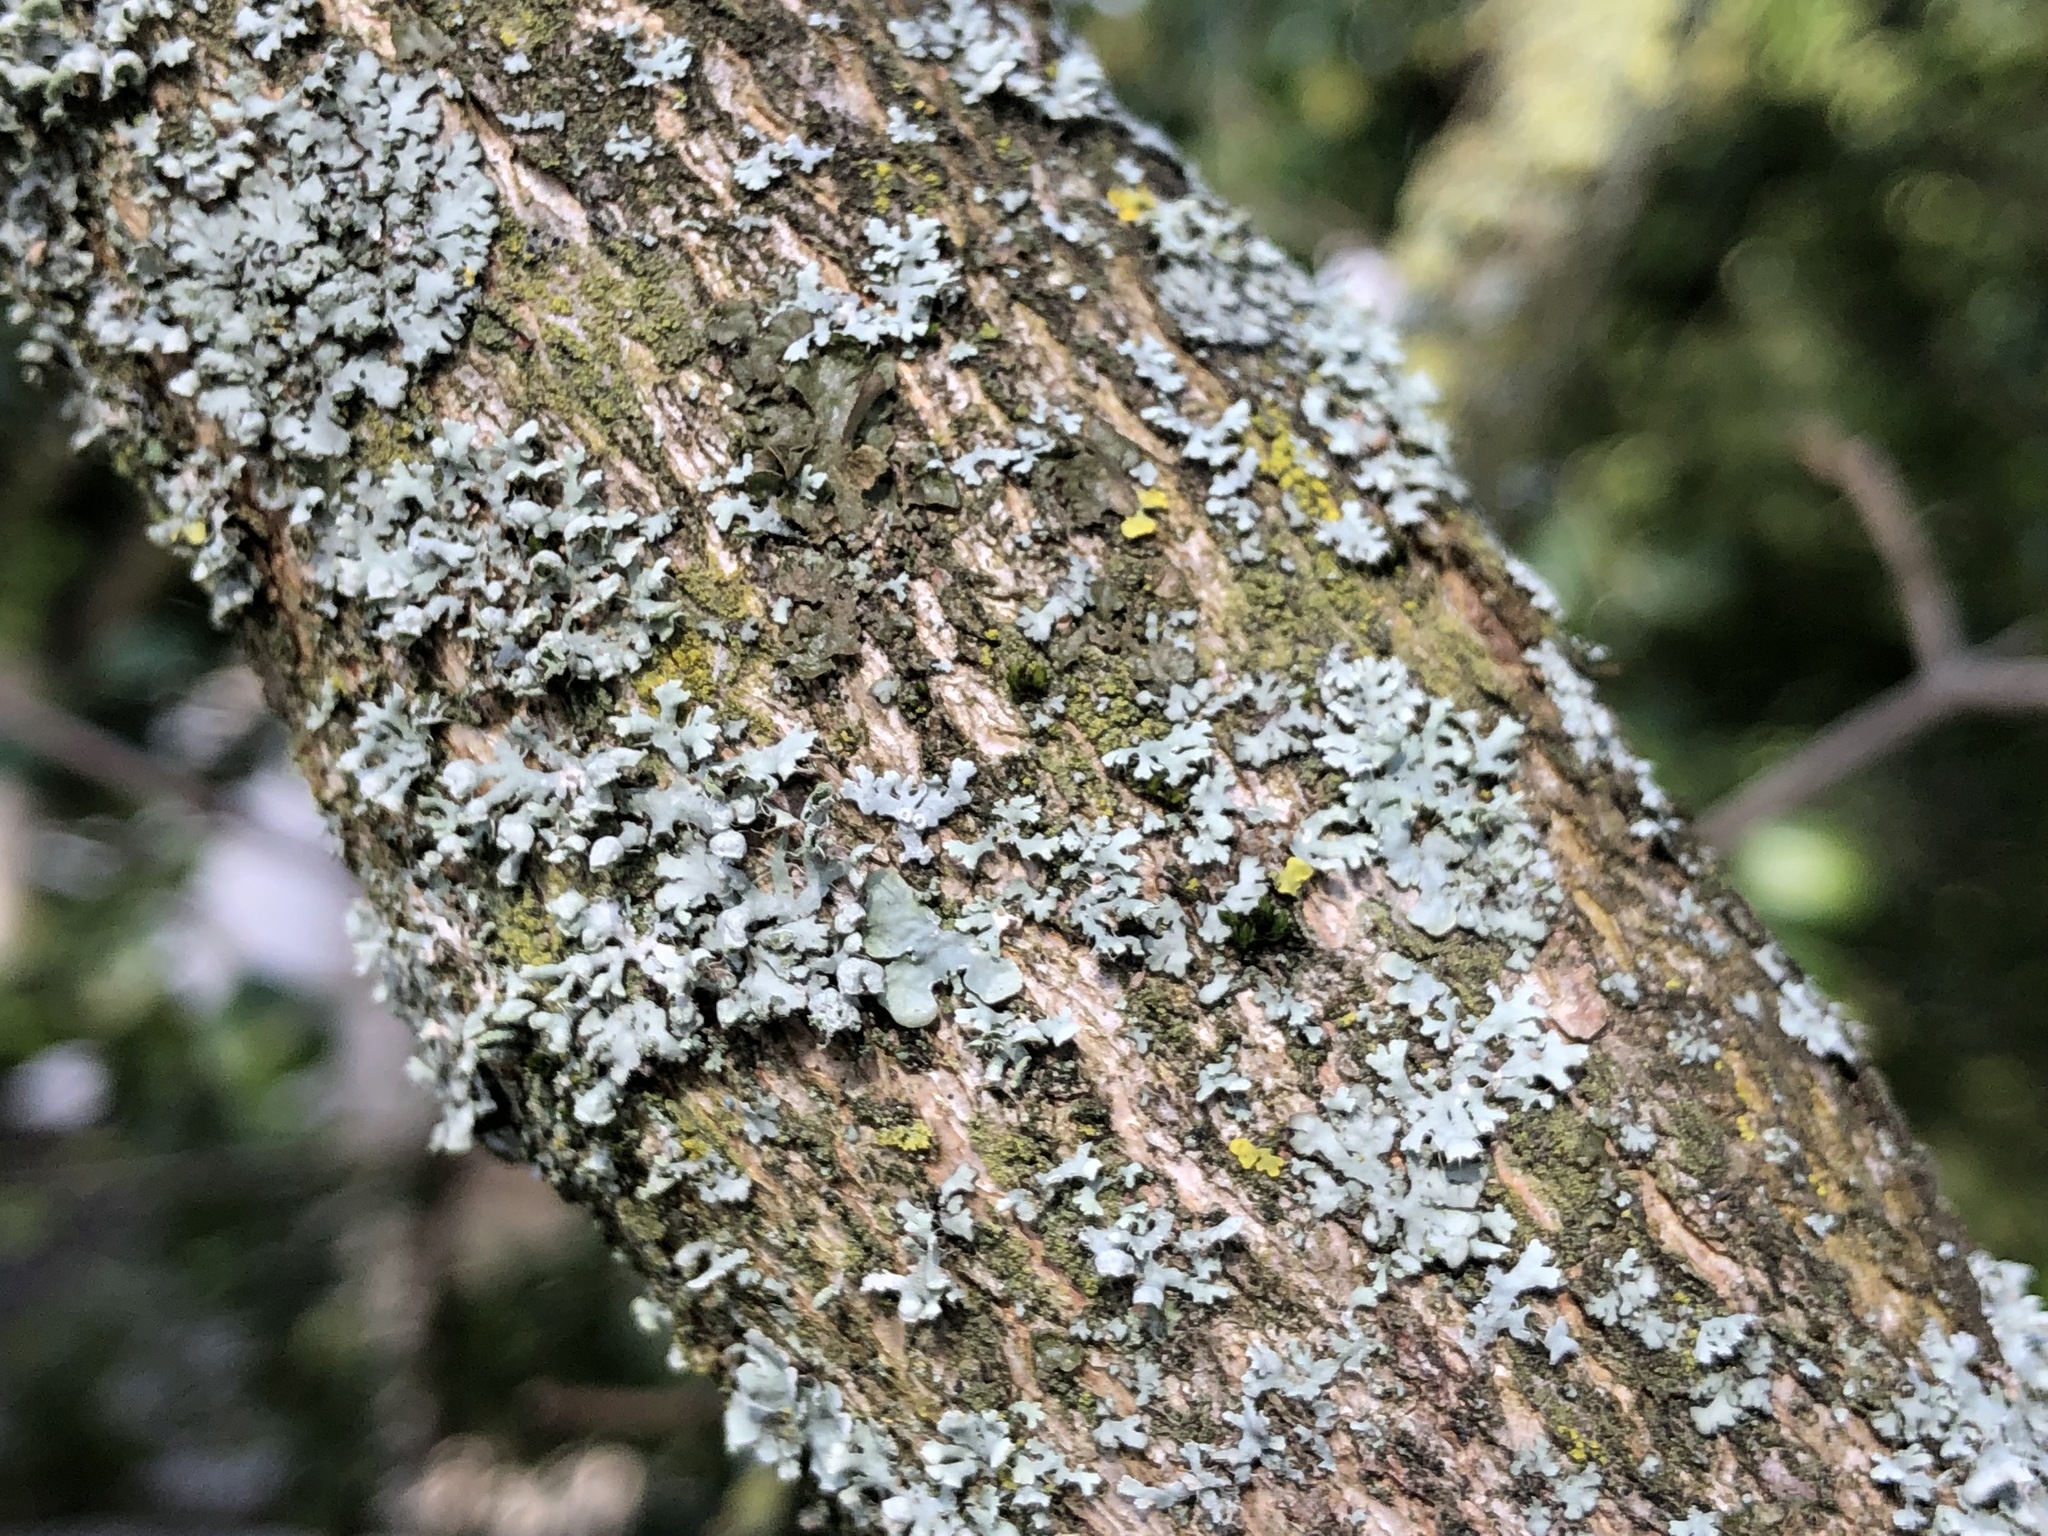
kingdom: Fungi
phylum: Ascomycota
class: Lecanoromycetes
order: Caliciales
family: Physciaceae
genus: Physcia
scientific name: Physcia adscendens
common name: Hooded rosette lichen
